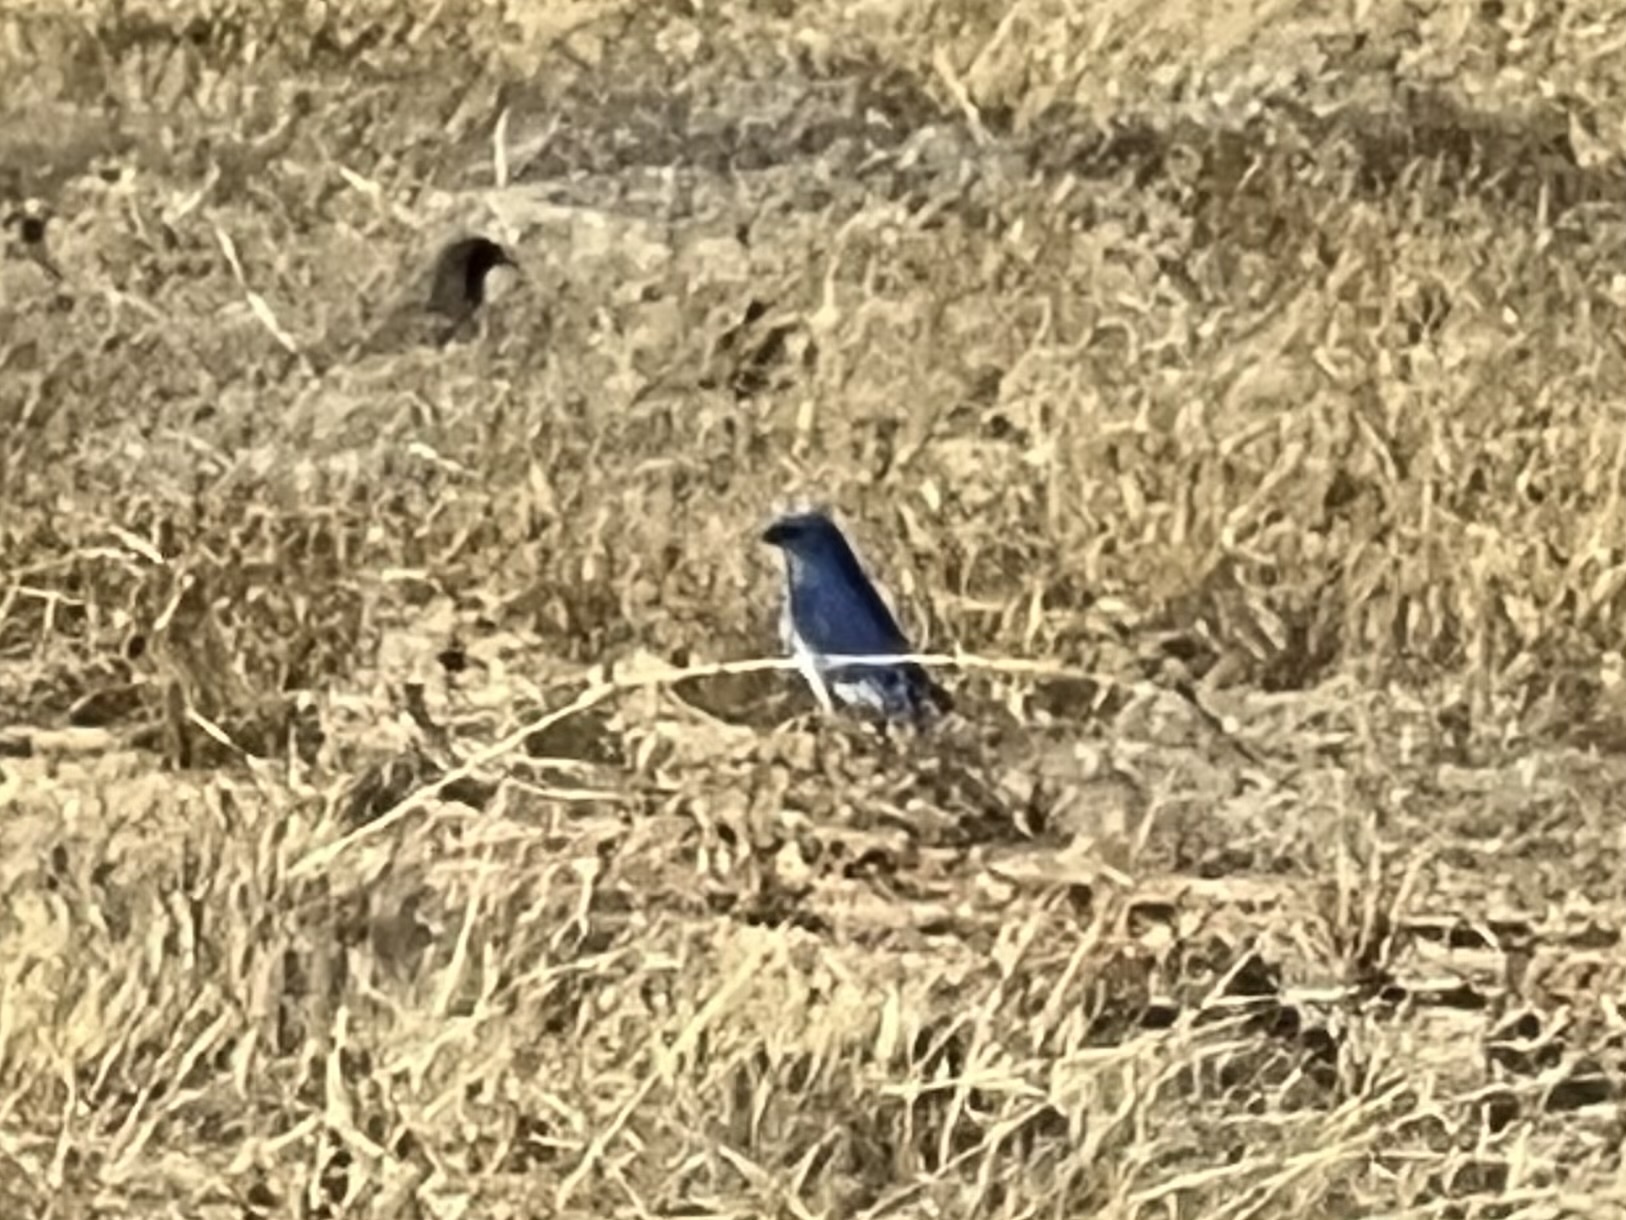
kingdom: Animalia
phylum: Chordata
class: Aves
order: Passeriformes
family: Turdidae
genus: Sialia
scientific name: Sialia currucoides
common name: Mountain bluebird
